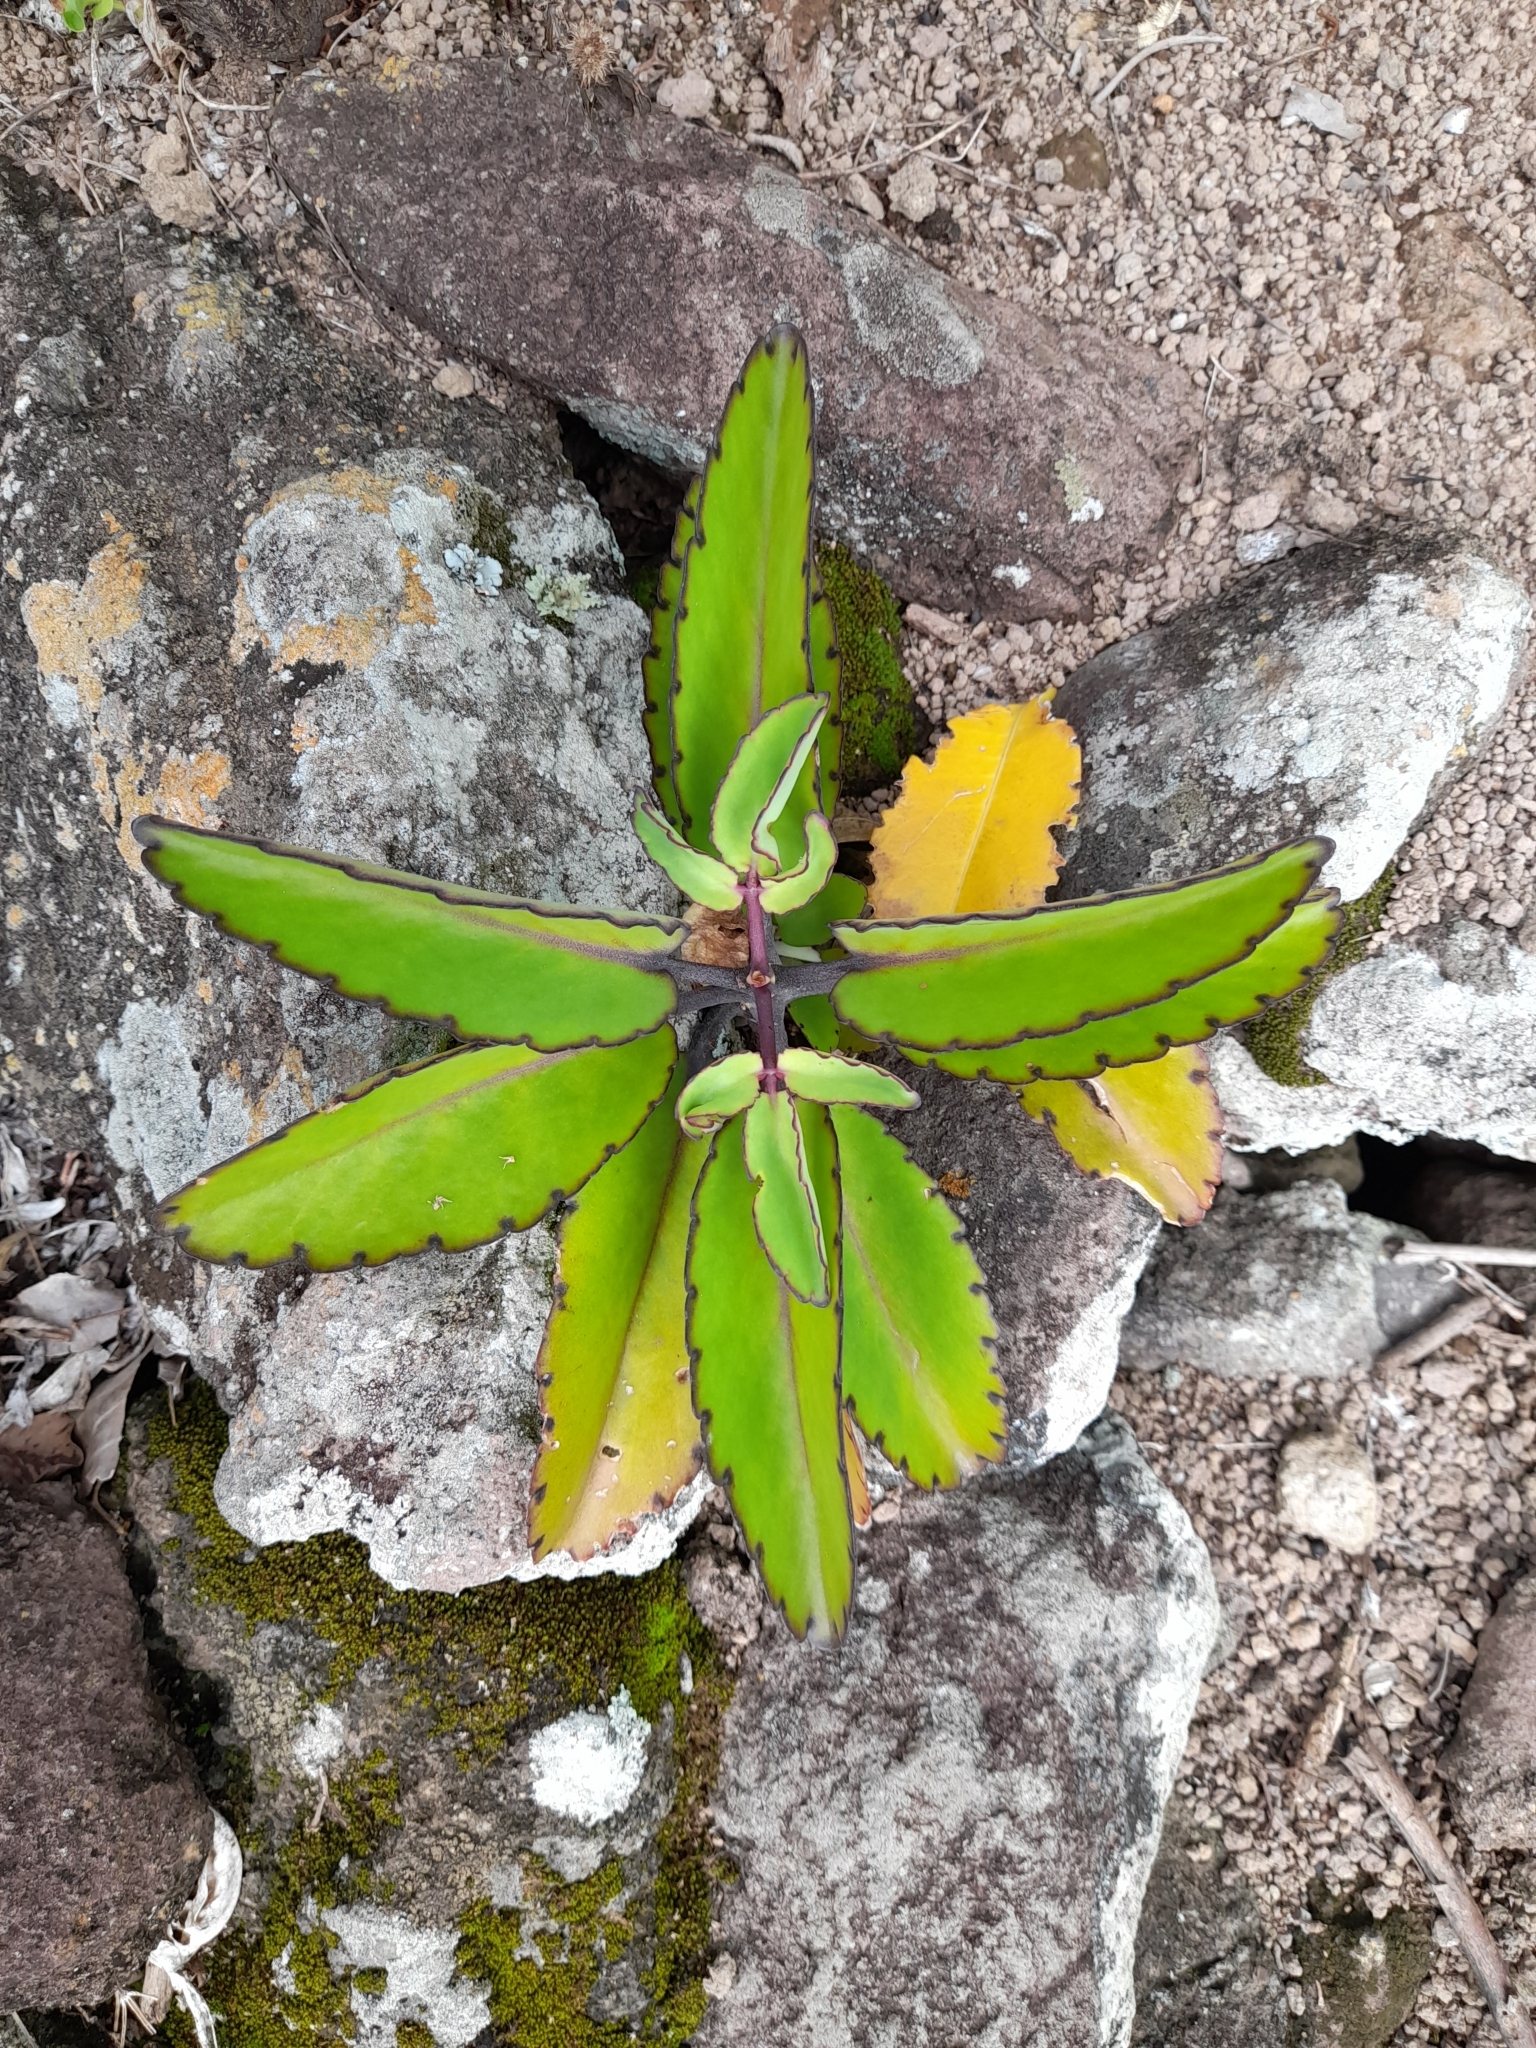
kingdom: Plantae
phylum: Tracheophyta
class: Magnoliopsida
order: Saxifragales
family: Crassulaceae
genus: Kalanchoe
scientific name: Kalanchoe pinnata
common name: Cathedral bells
